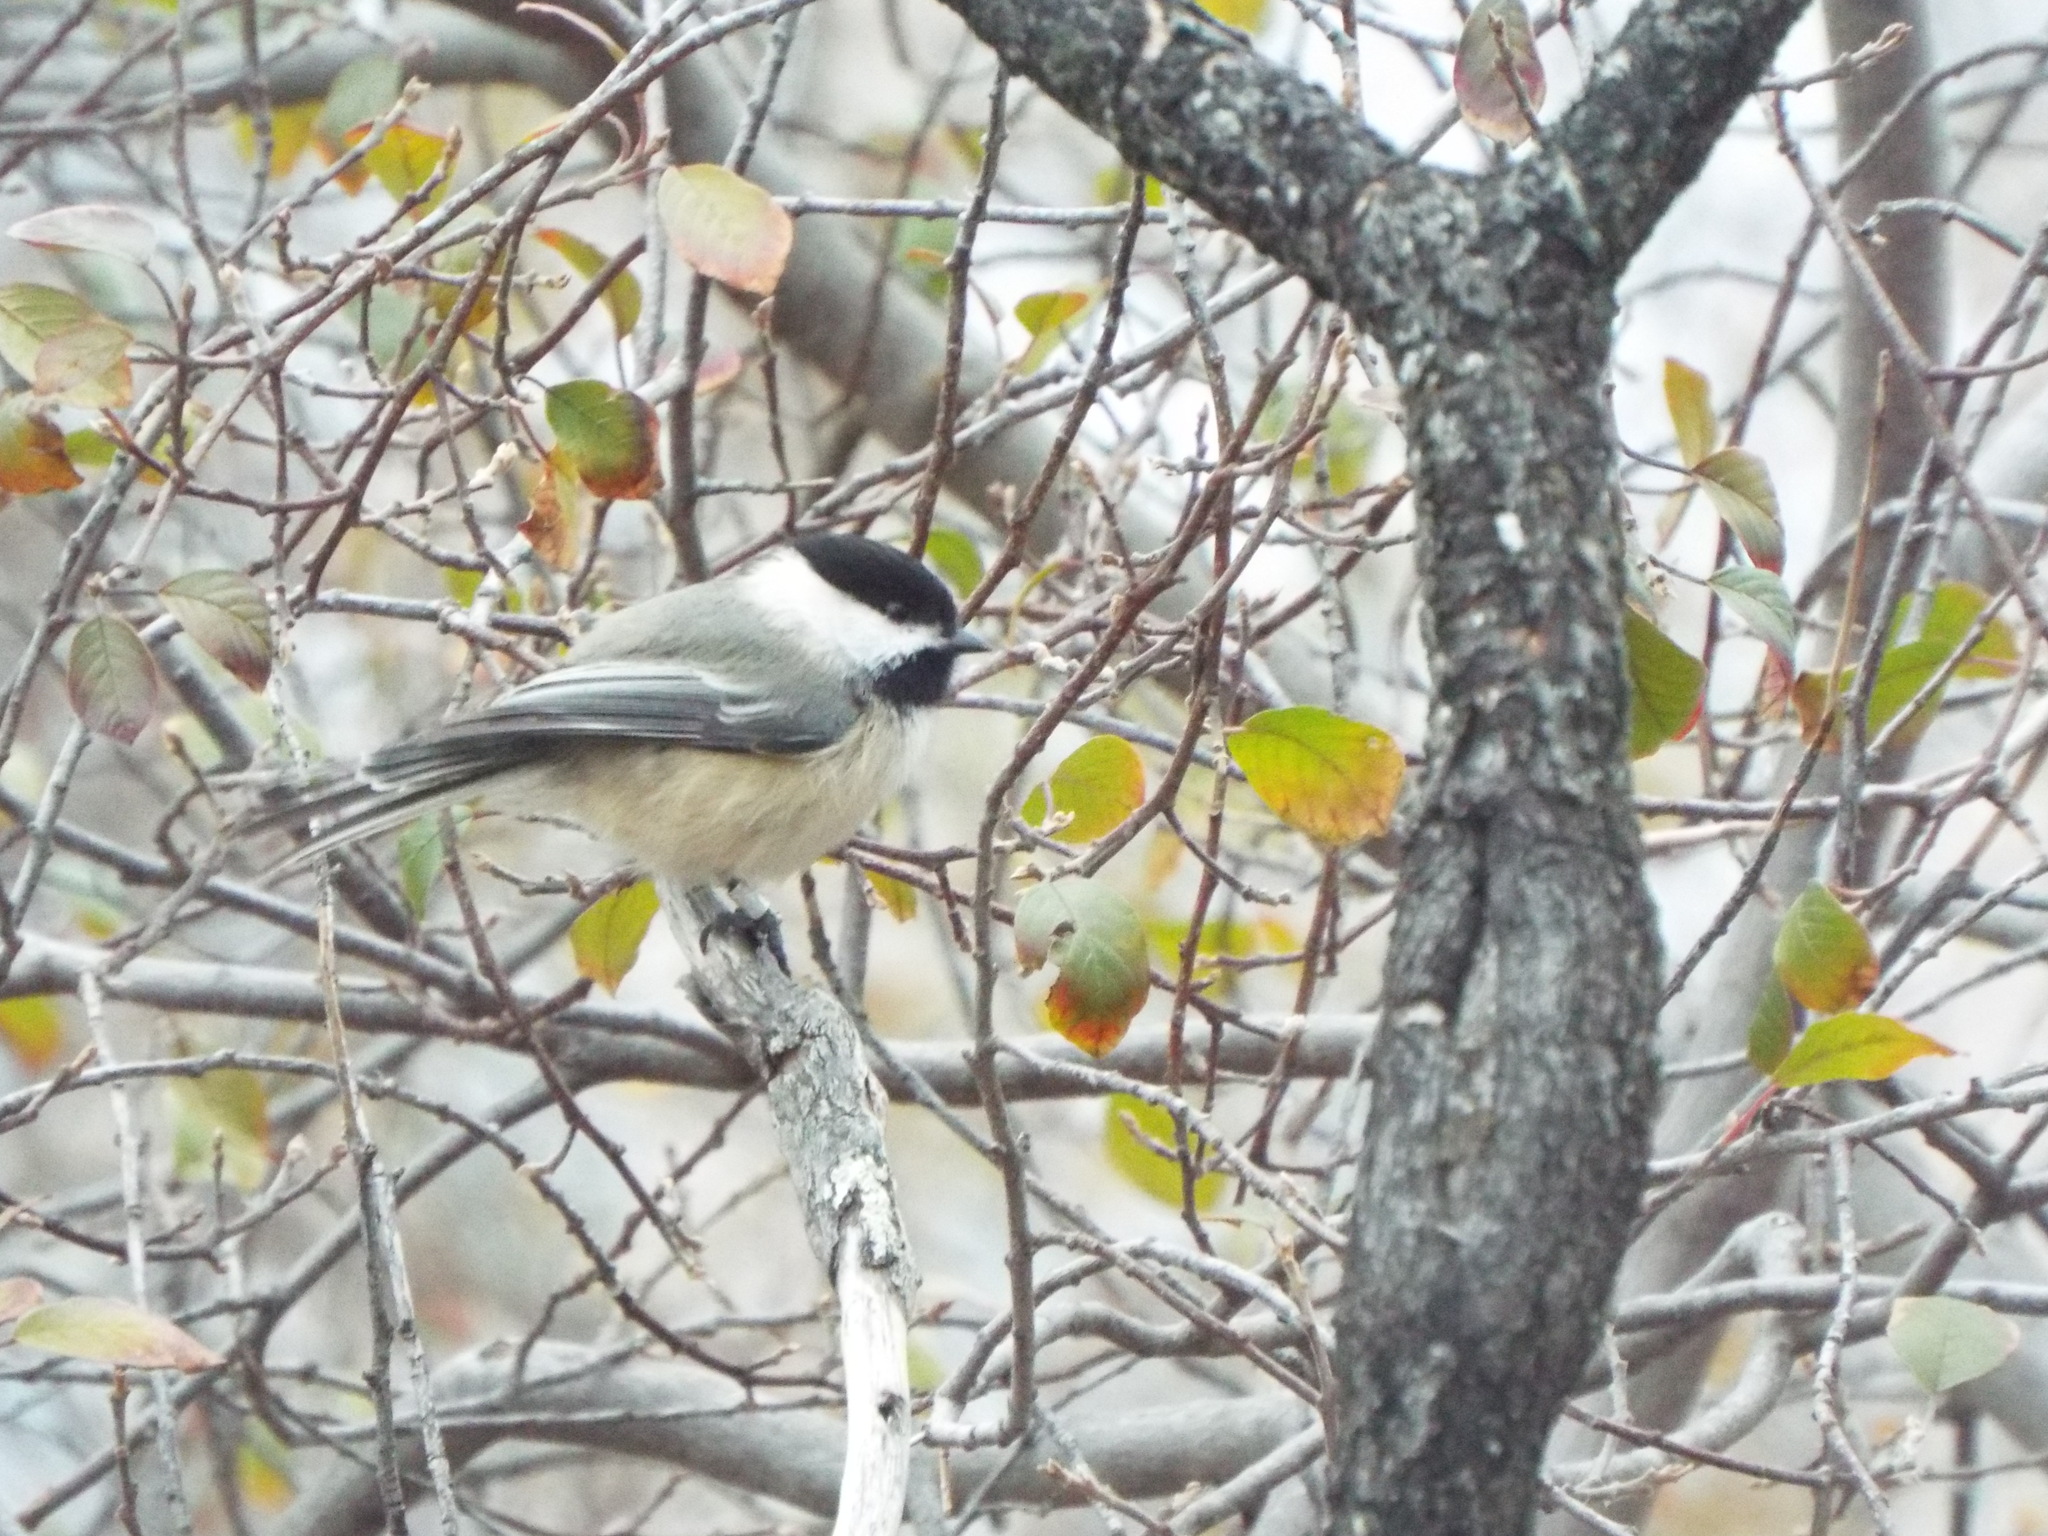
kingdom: Animalia
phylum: Chordata
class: Aves
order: Passeriformes
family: Paridae
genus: Poecile
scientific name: Poecile atricapillus
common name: Black-capped chickadee
